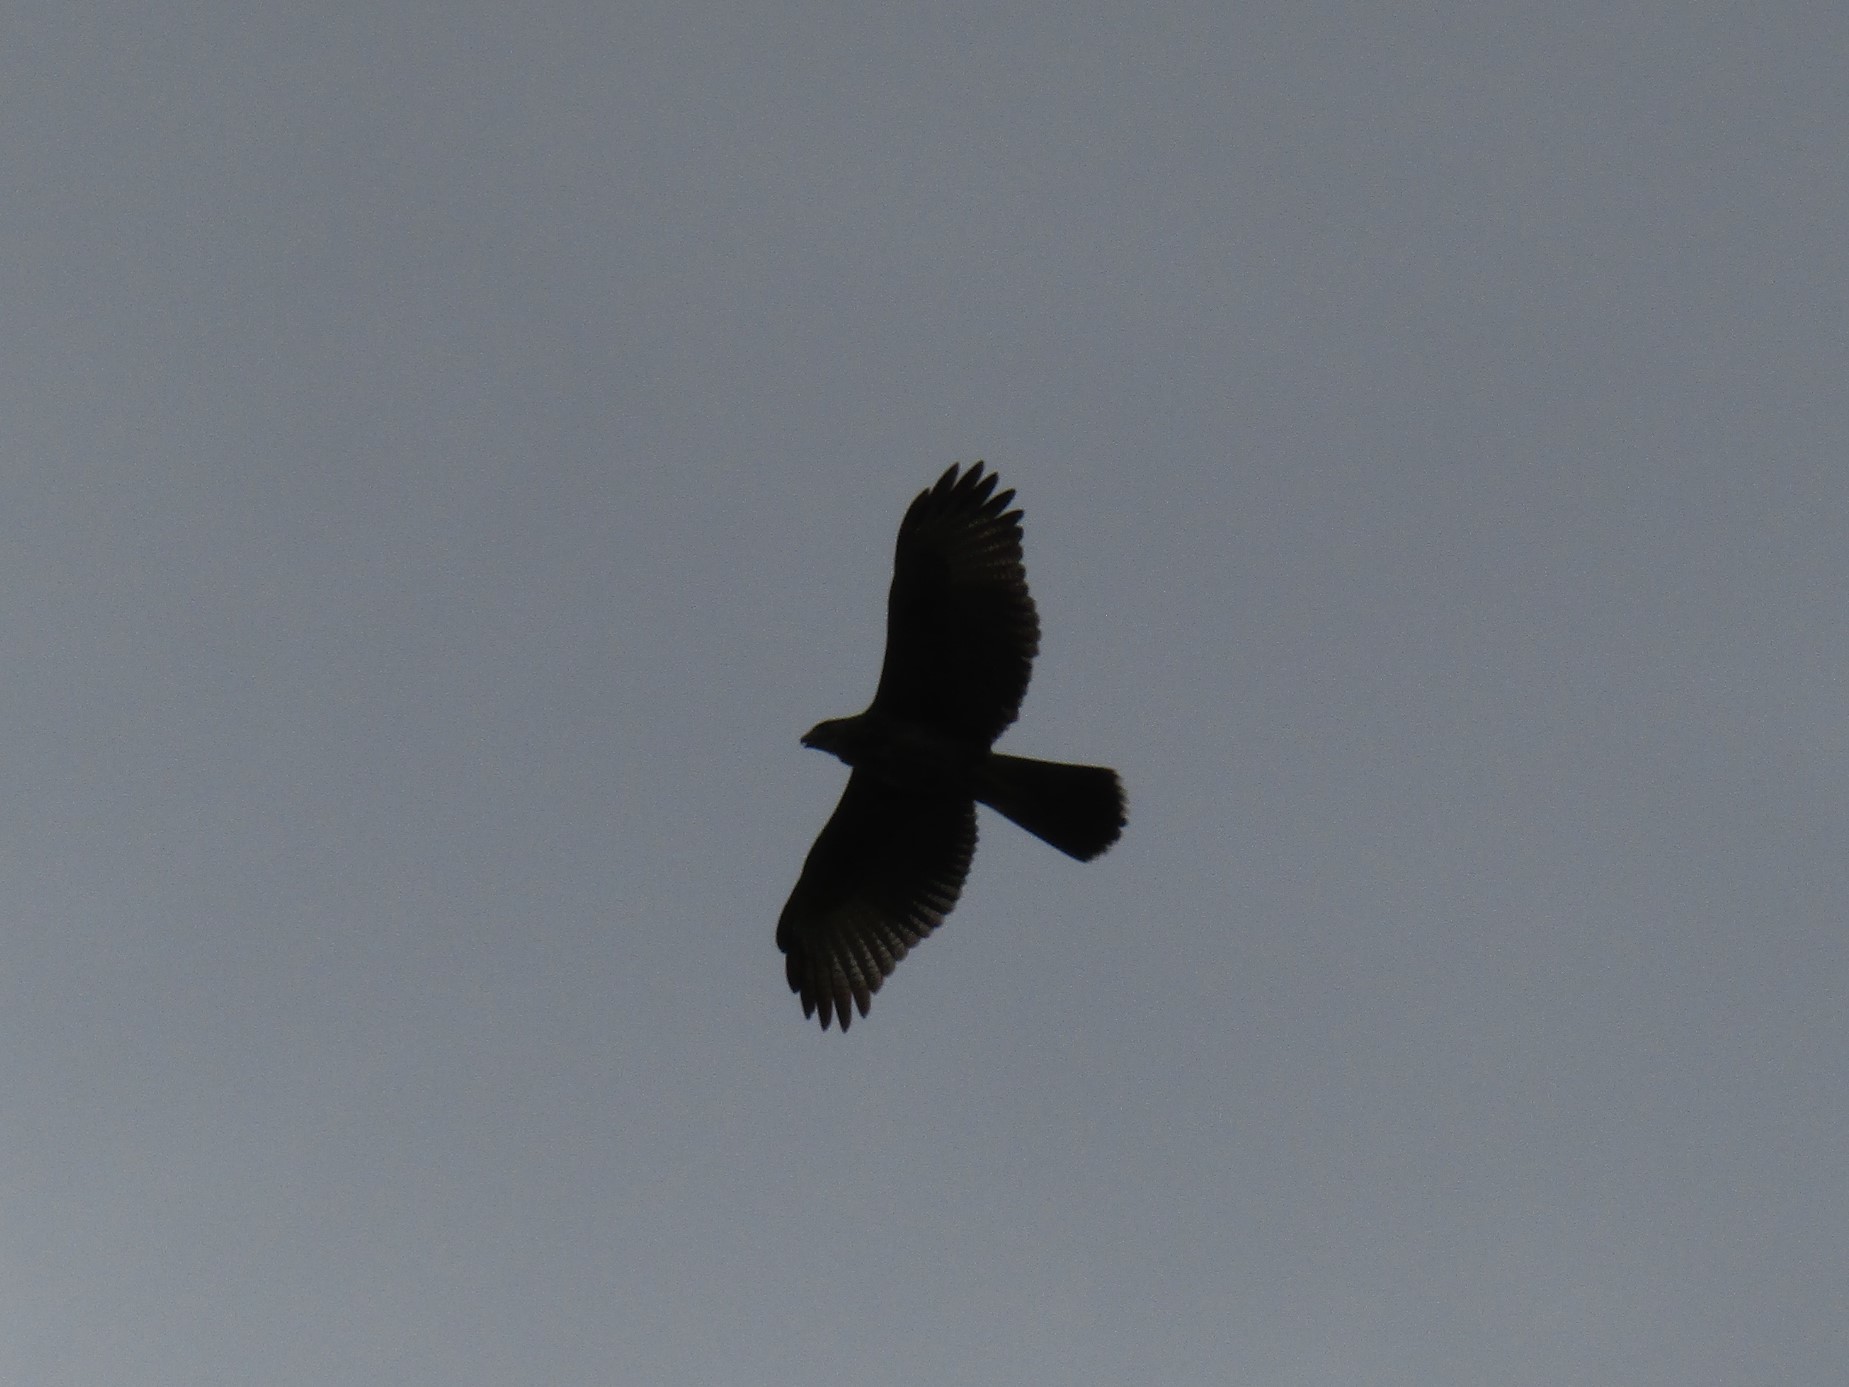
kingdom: Animalia
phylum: Chordata
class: Aves
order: Accipitriformes
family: Accipitridae
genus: Parabuteo
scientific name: Parabuteo unicinctus
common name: Harris's hawk
